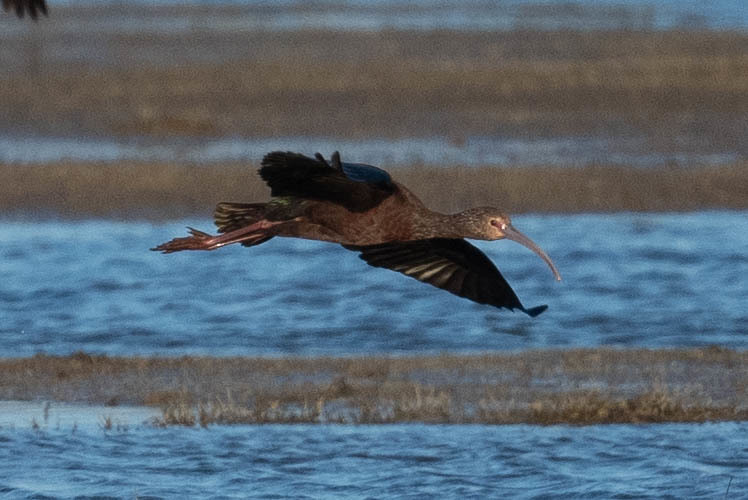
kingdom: Animalia
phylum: Chordata
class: Aves
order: Pelecaniformes
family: Threskiornithidae
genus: Plegadis
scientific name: Plegadis chihi
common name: White-faced ibis
